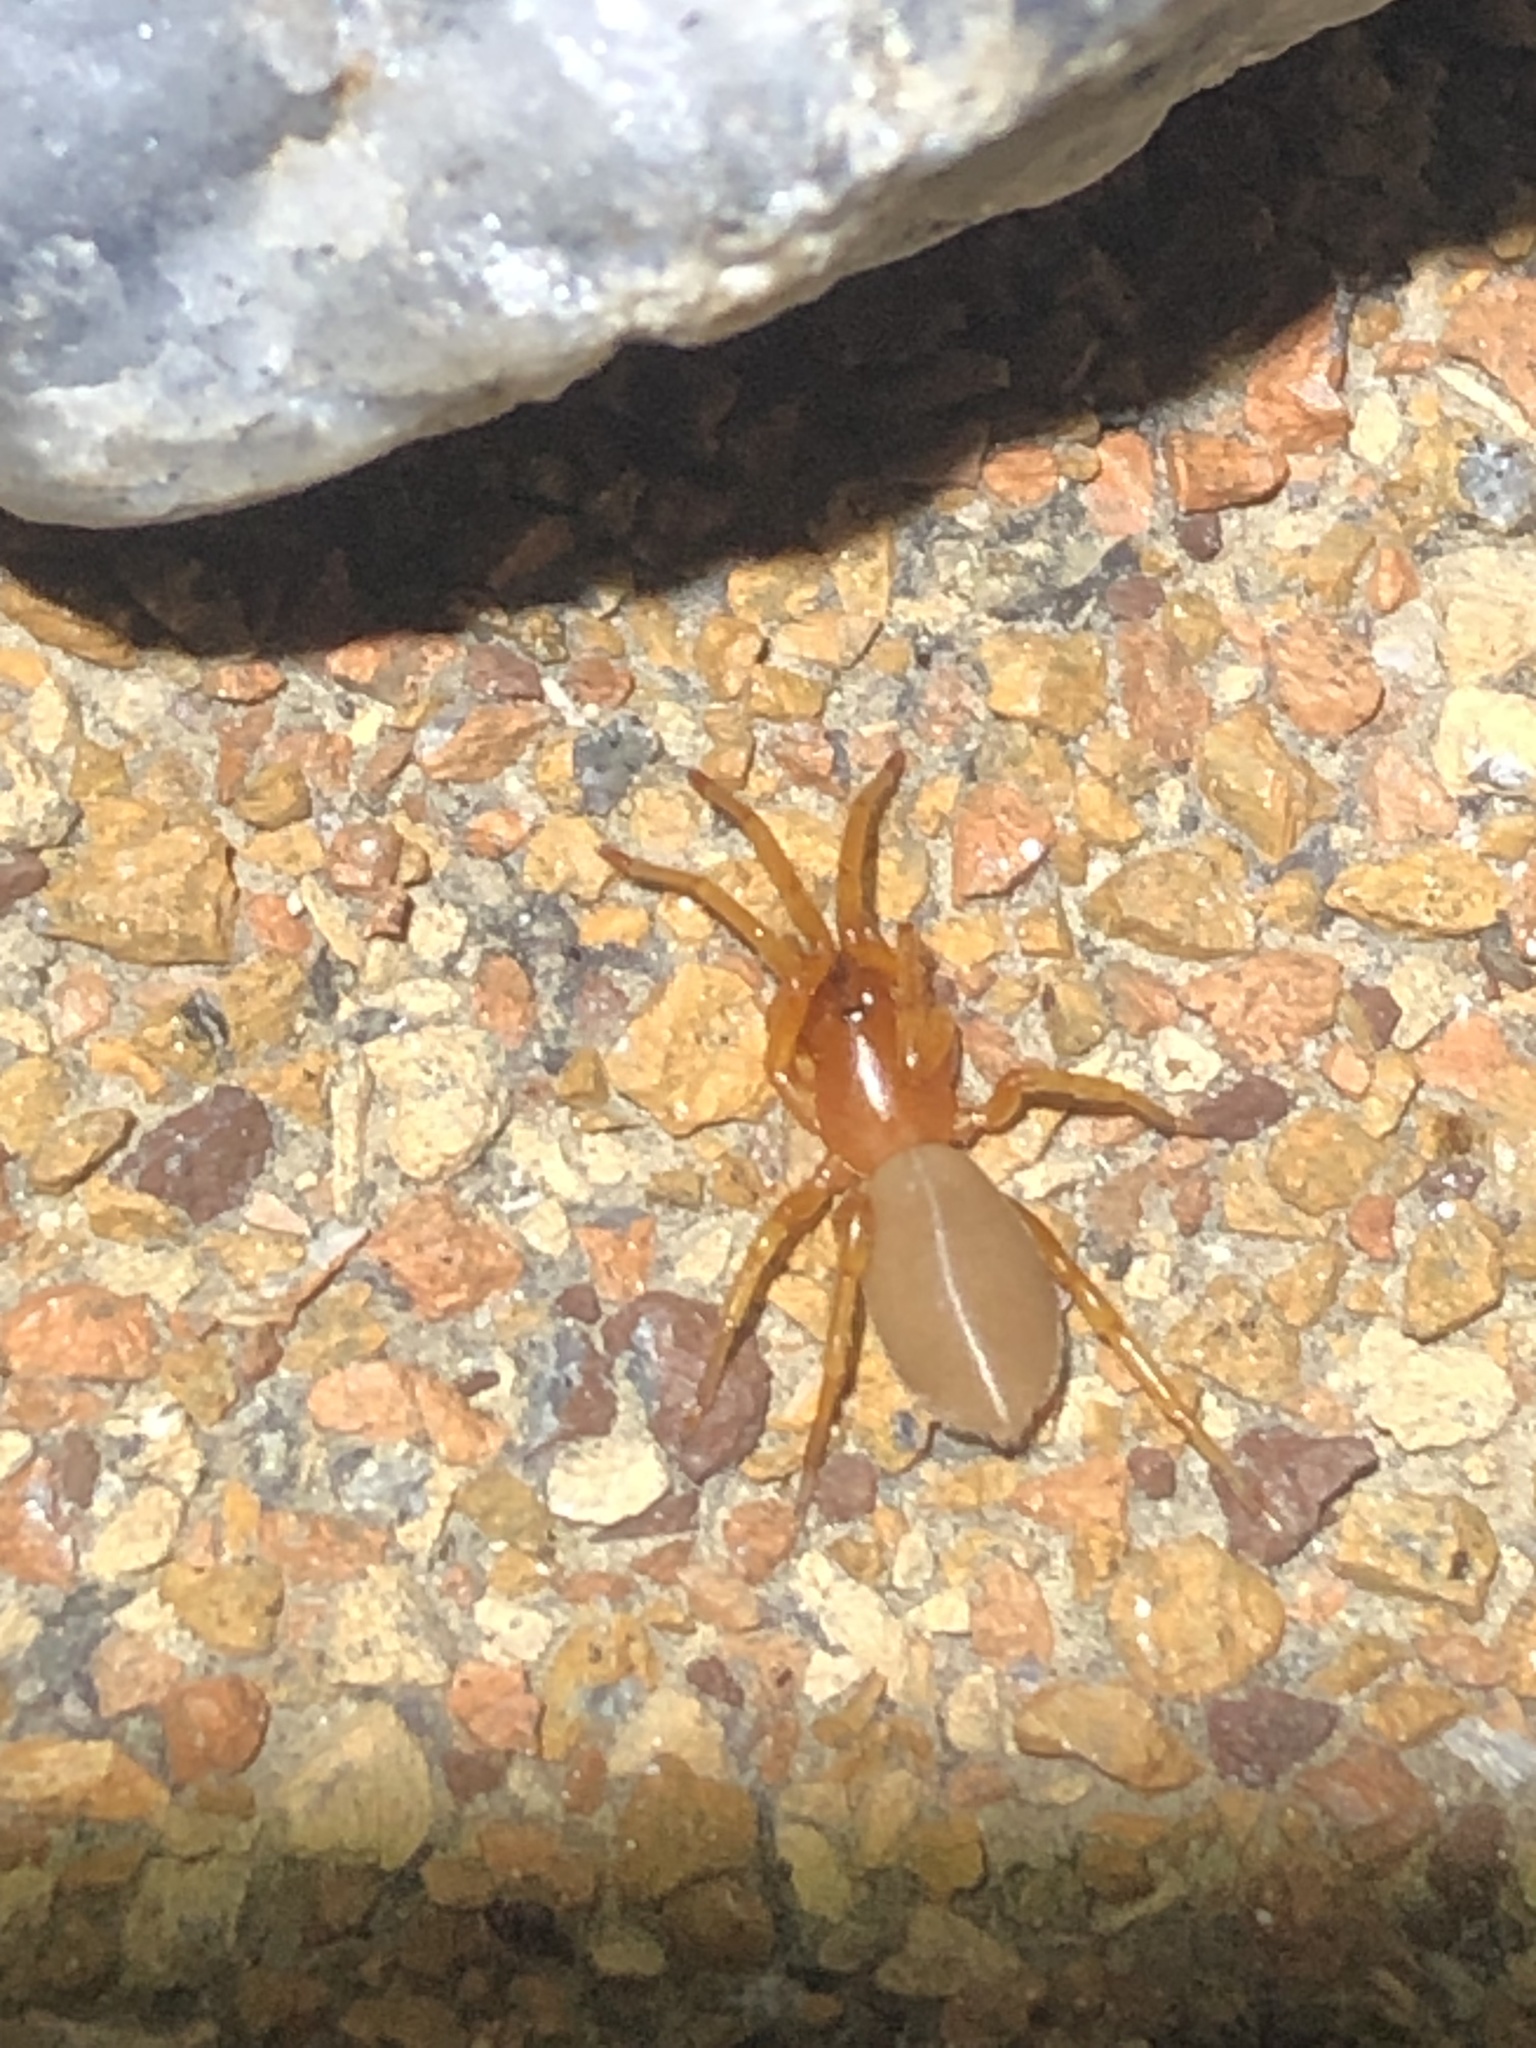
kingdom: Animalia
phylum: Arthropoda
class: Arachnida
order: Araneae
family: Dysderidae
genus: Dysdera
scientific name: Dysdera crocata
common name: Woodlouse spider
